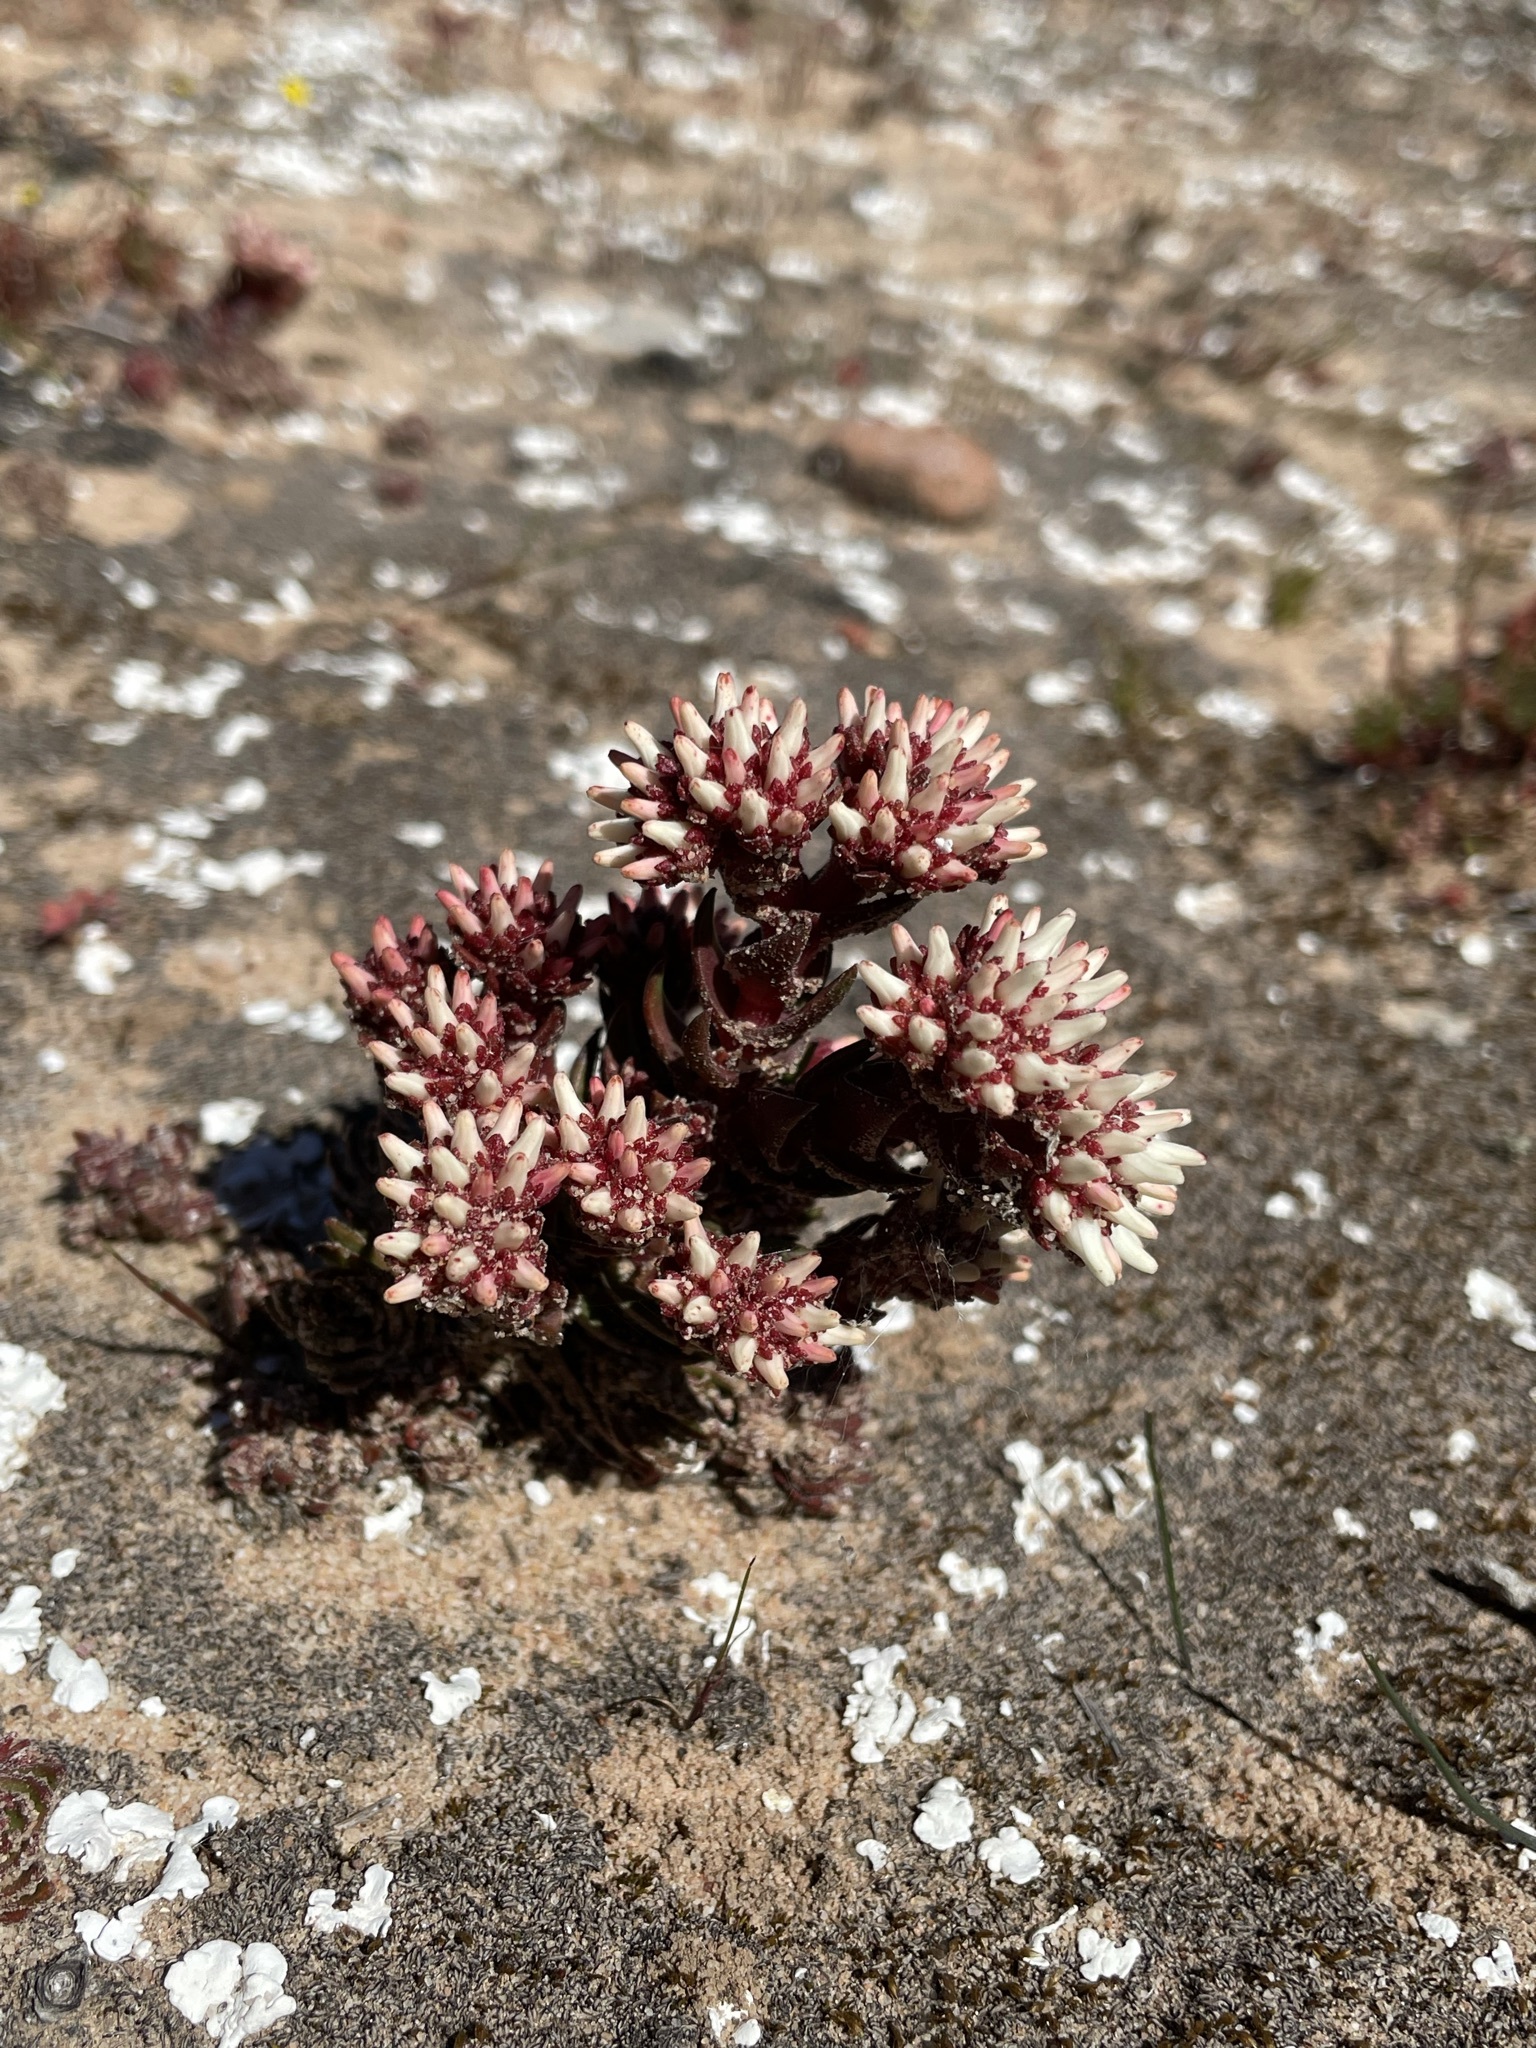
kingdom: Plantae
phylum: Tracheophyta
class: Magnoliopsida
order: Saxifragales
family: Crassulaceae
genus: Crassula
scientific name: Crassula alpestris
